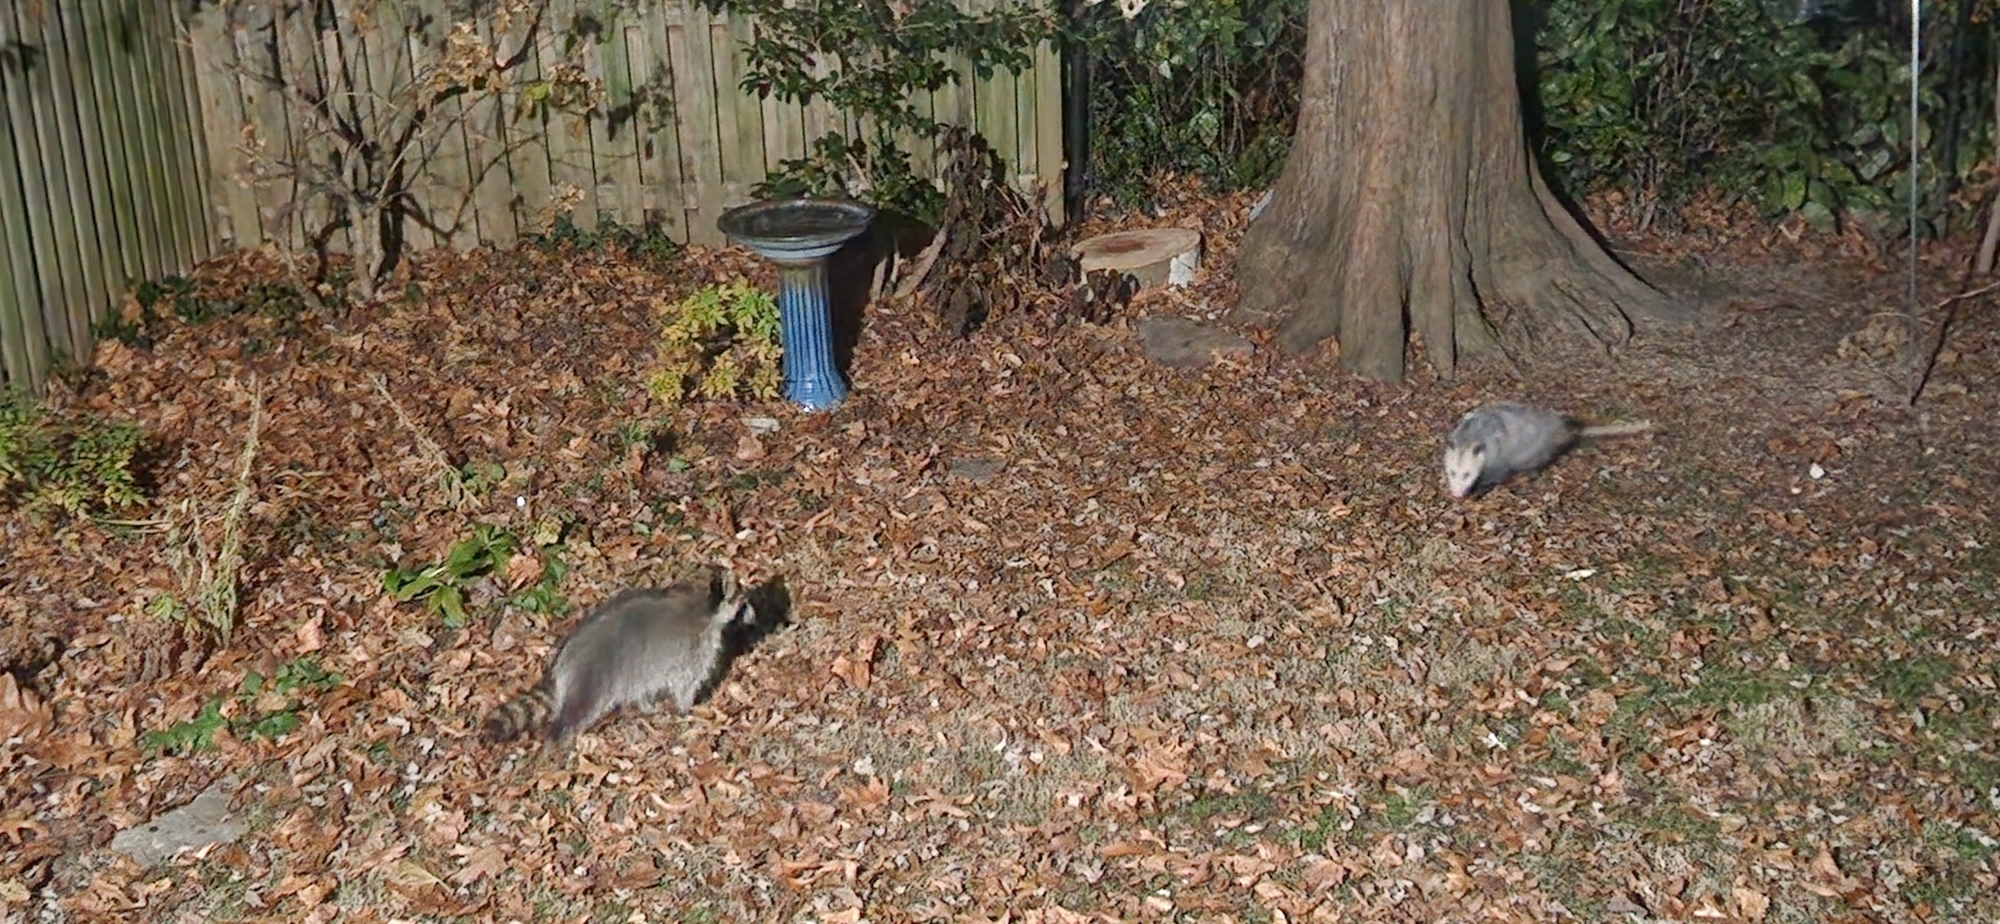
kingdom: Animalia
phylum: Chordata
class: Mammalia
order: Didelphimorphia
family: Didelphidae
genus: Didelphis
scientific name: Didelphis virginiana
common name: Virginia opossum
